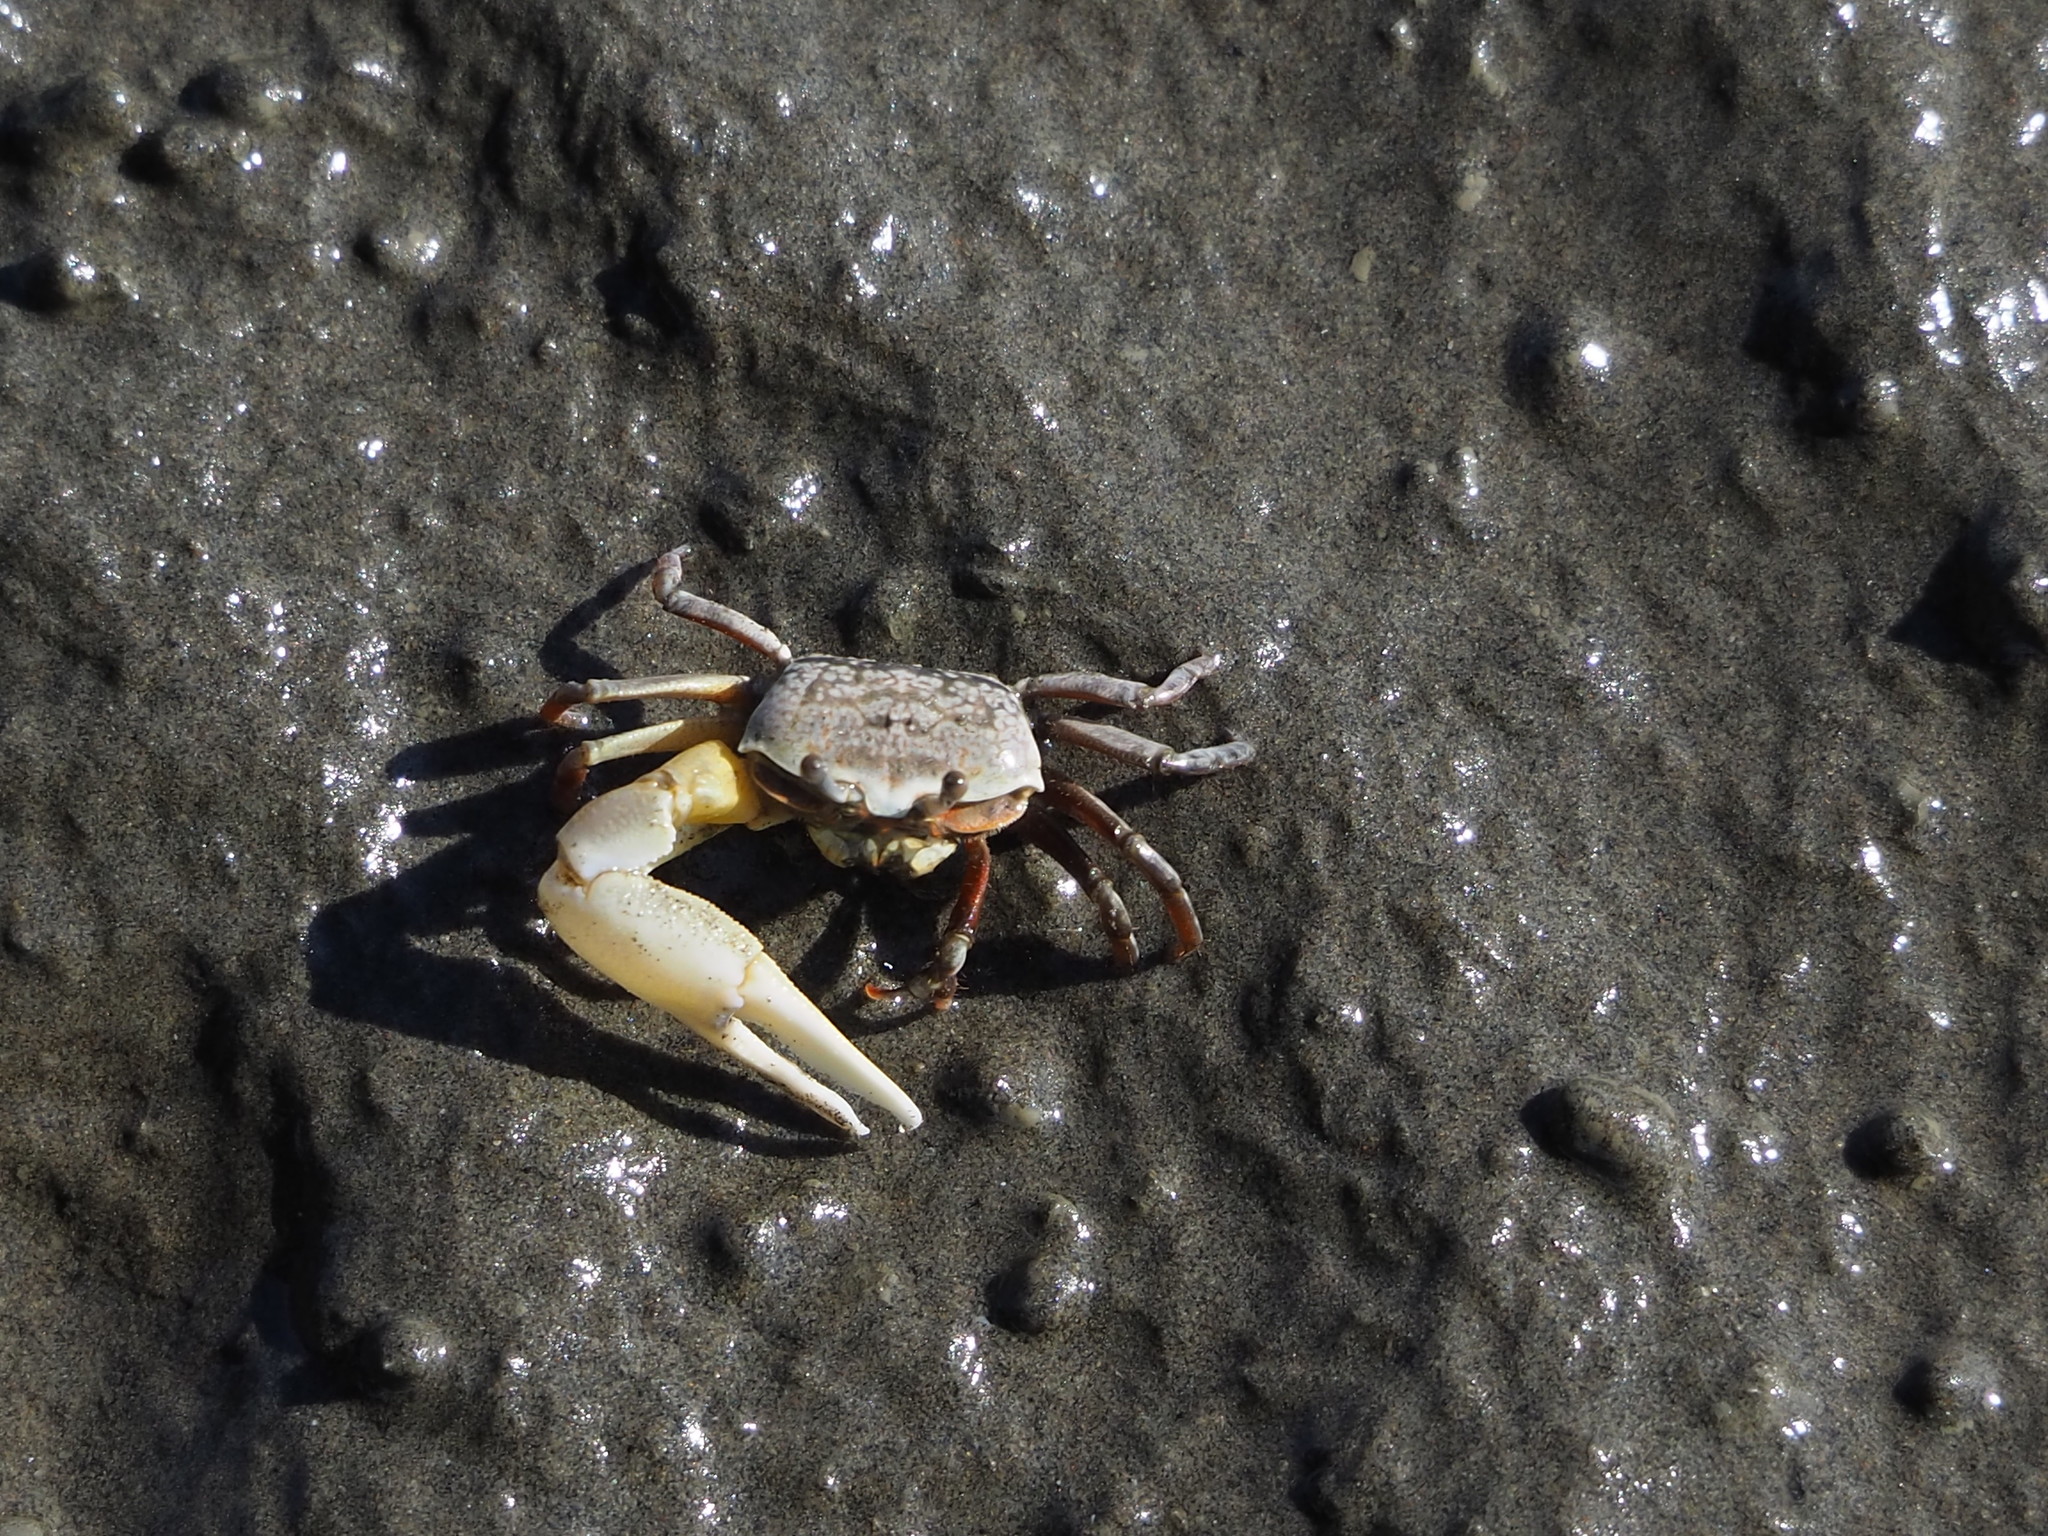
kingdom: Animalia
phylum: Arthropoda
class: Malacostraca
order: Decapoda
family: Ocypodidae
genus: Austruca
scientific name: Austruca lactea
